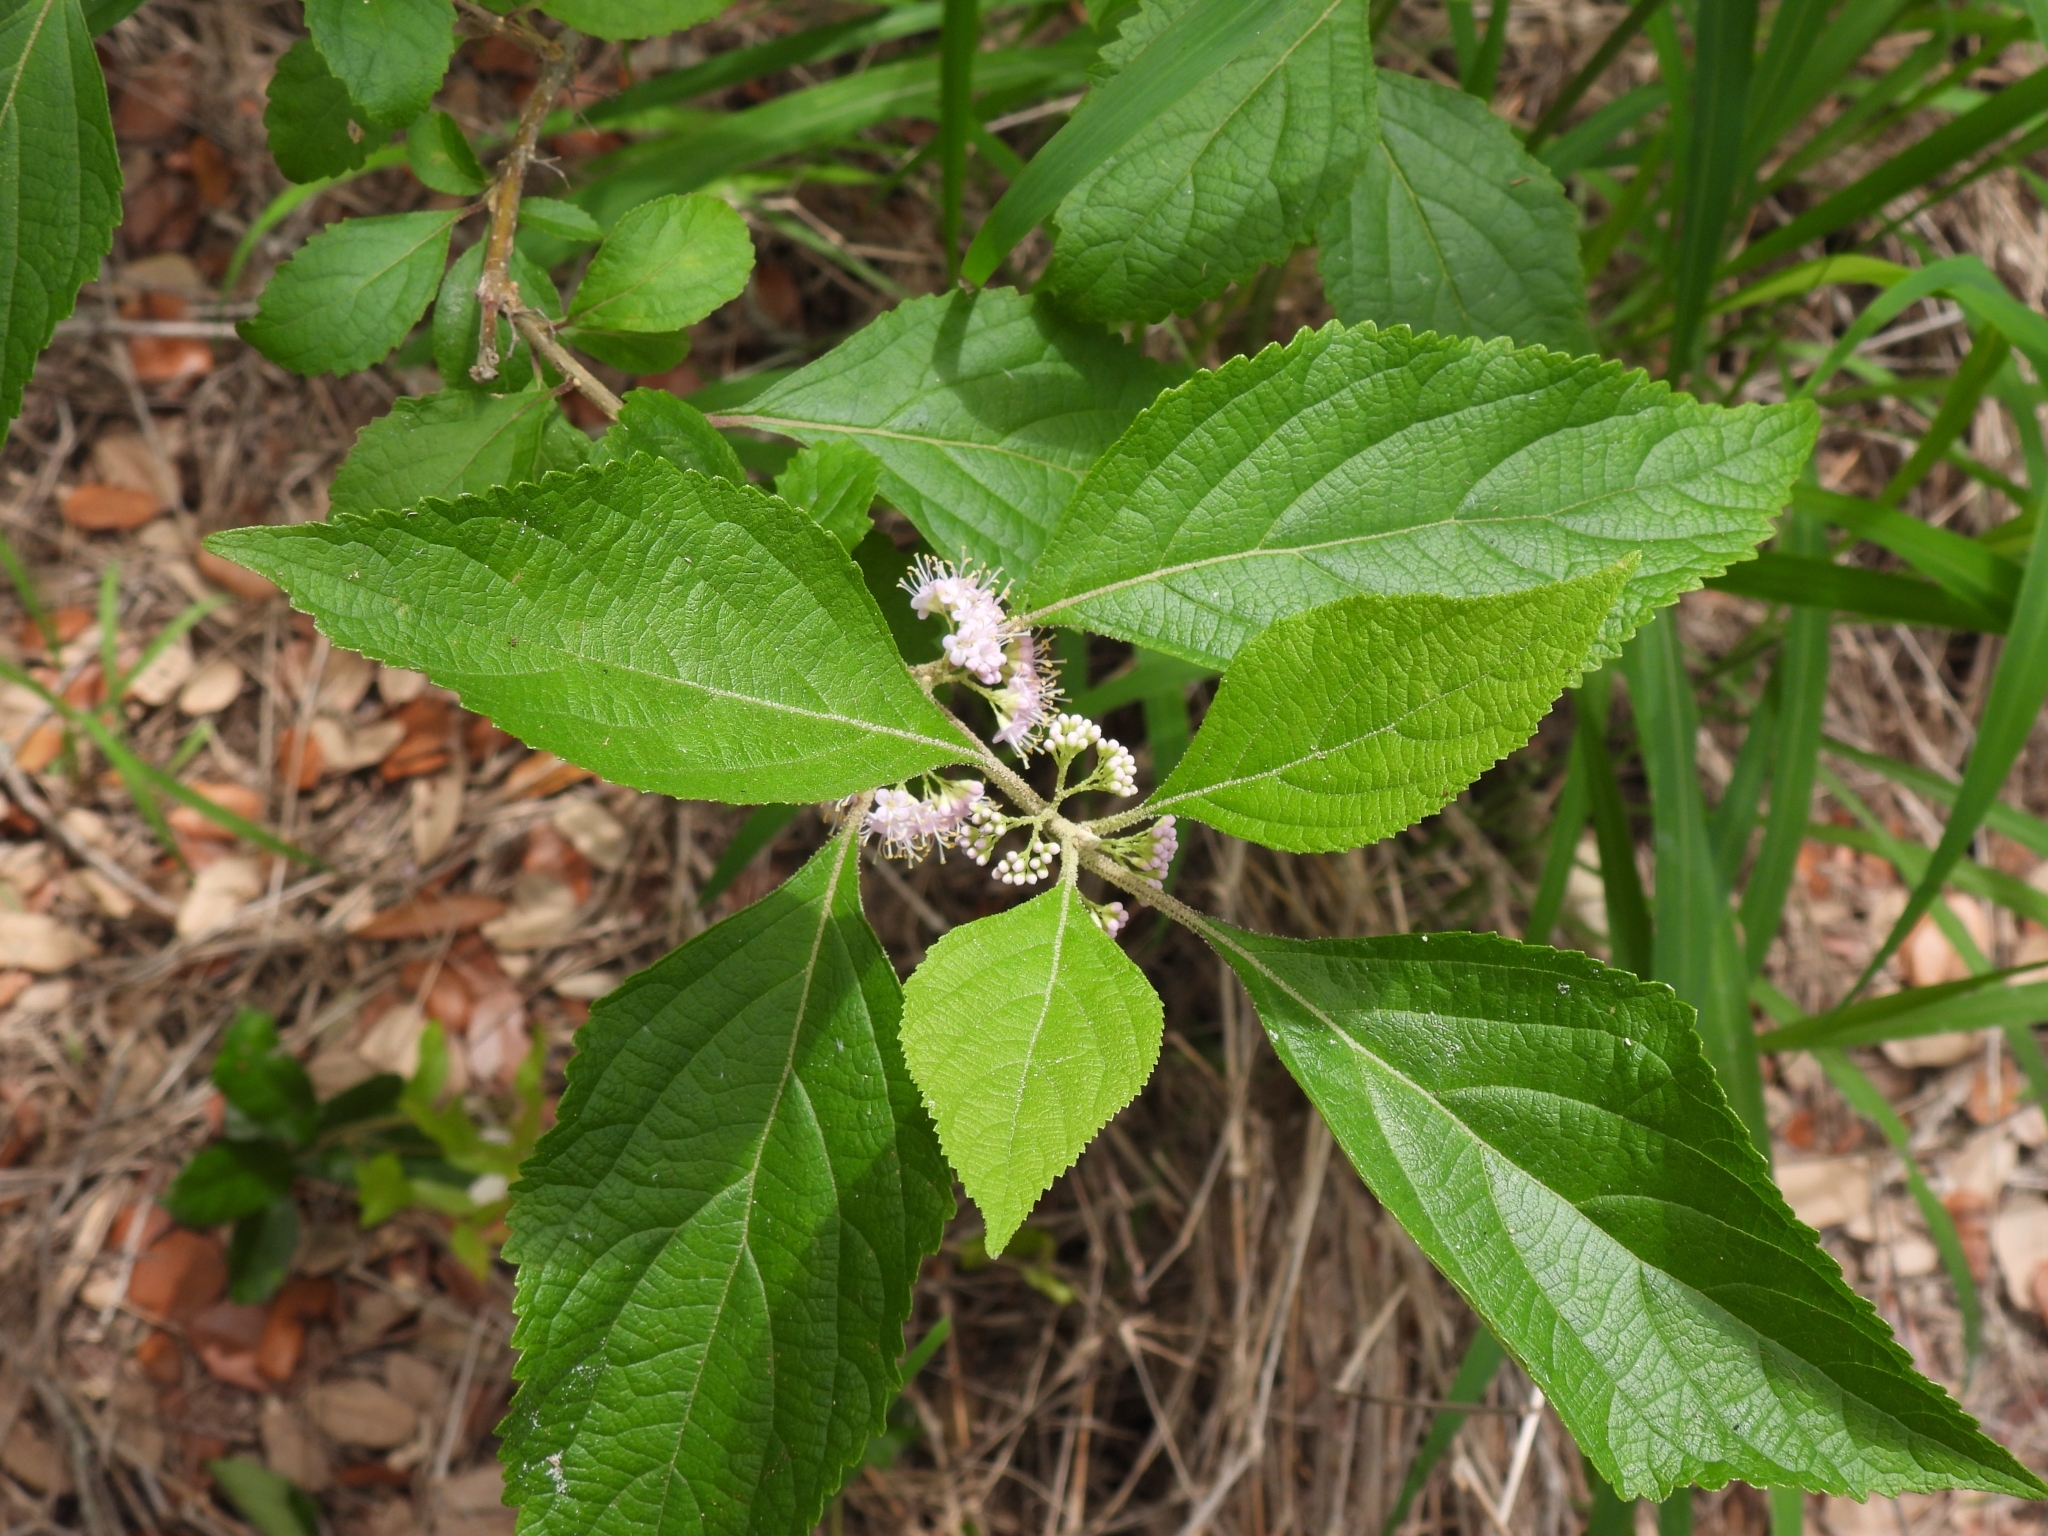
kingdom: Plantae
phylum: Tracheophyta
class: Magnoliopsida
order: Lamiales
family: Lamiaceae
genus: Callicarpa
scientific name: Callicarpa americana
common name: American beautyberry
